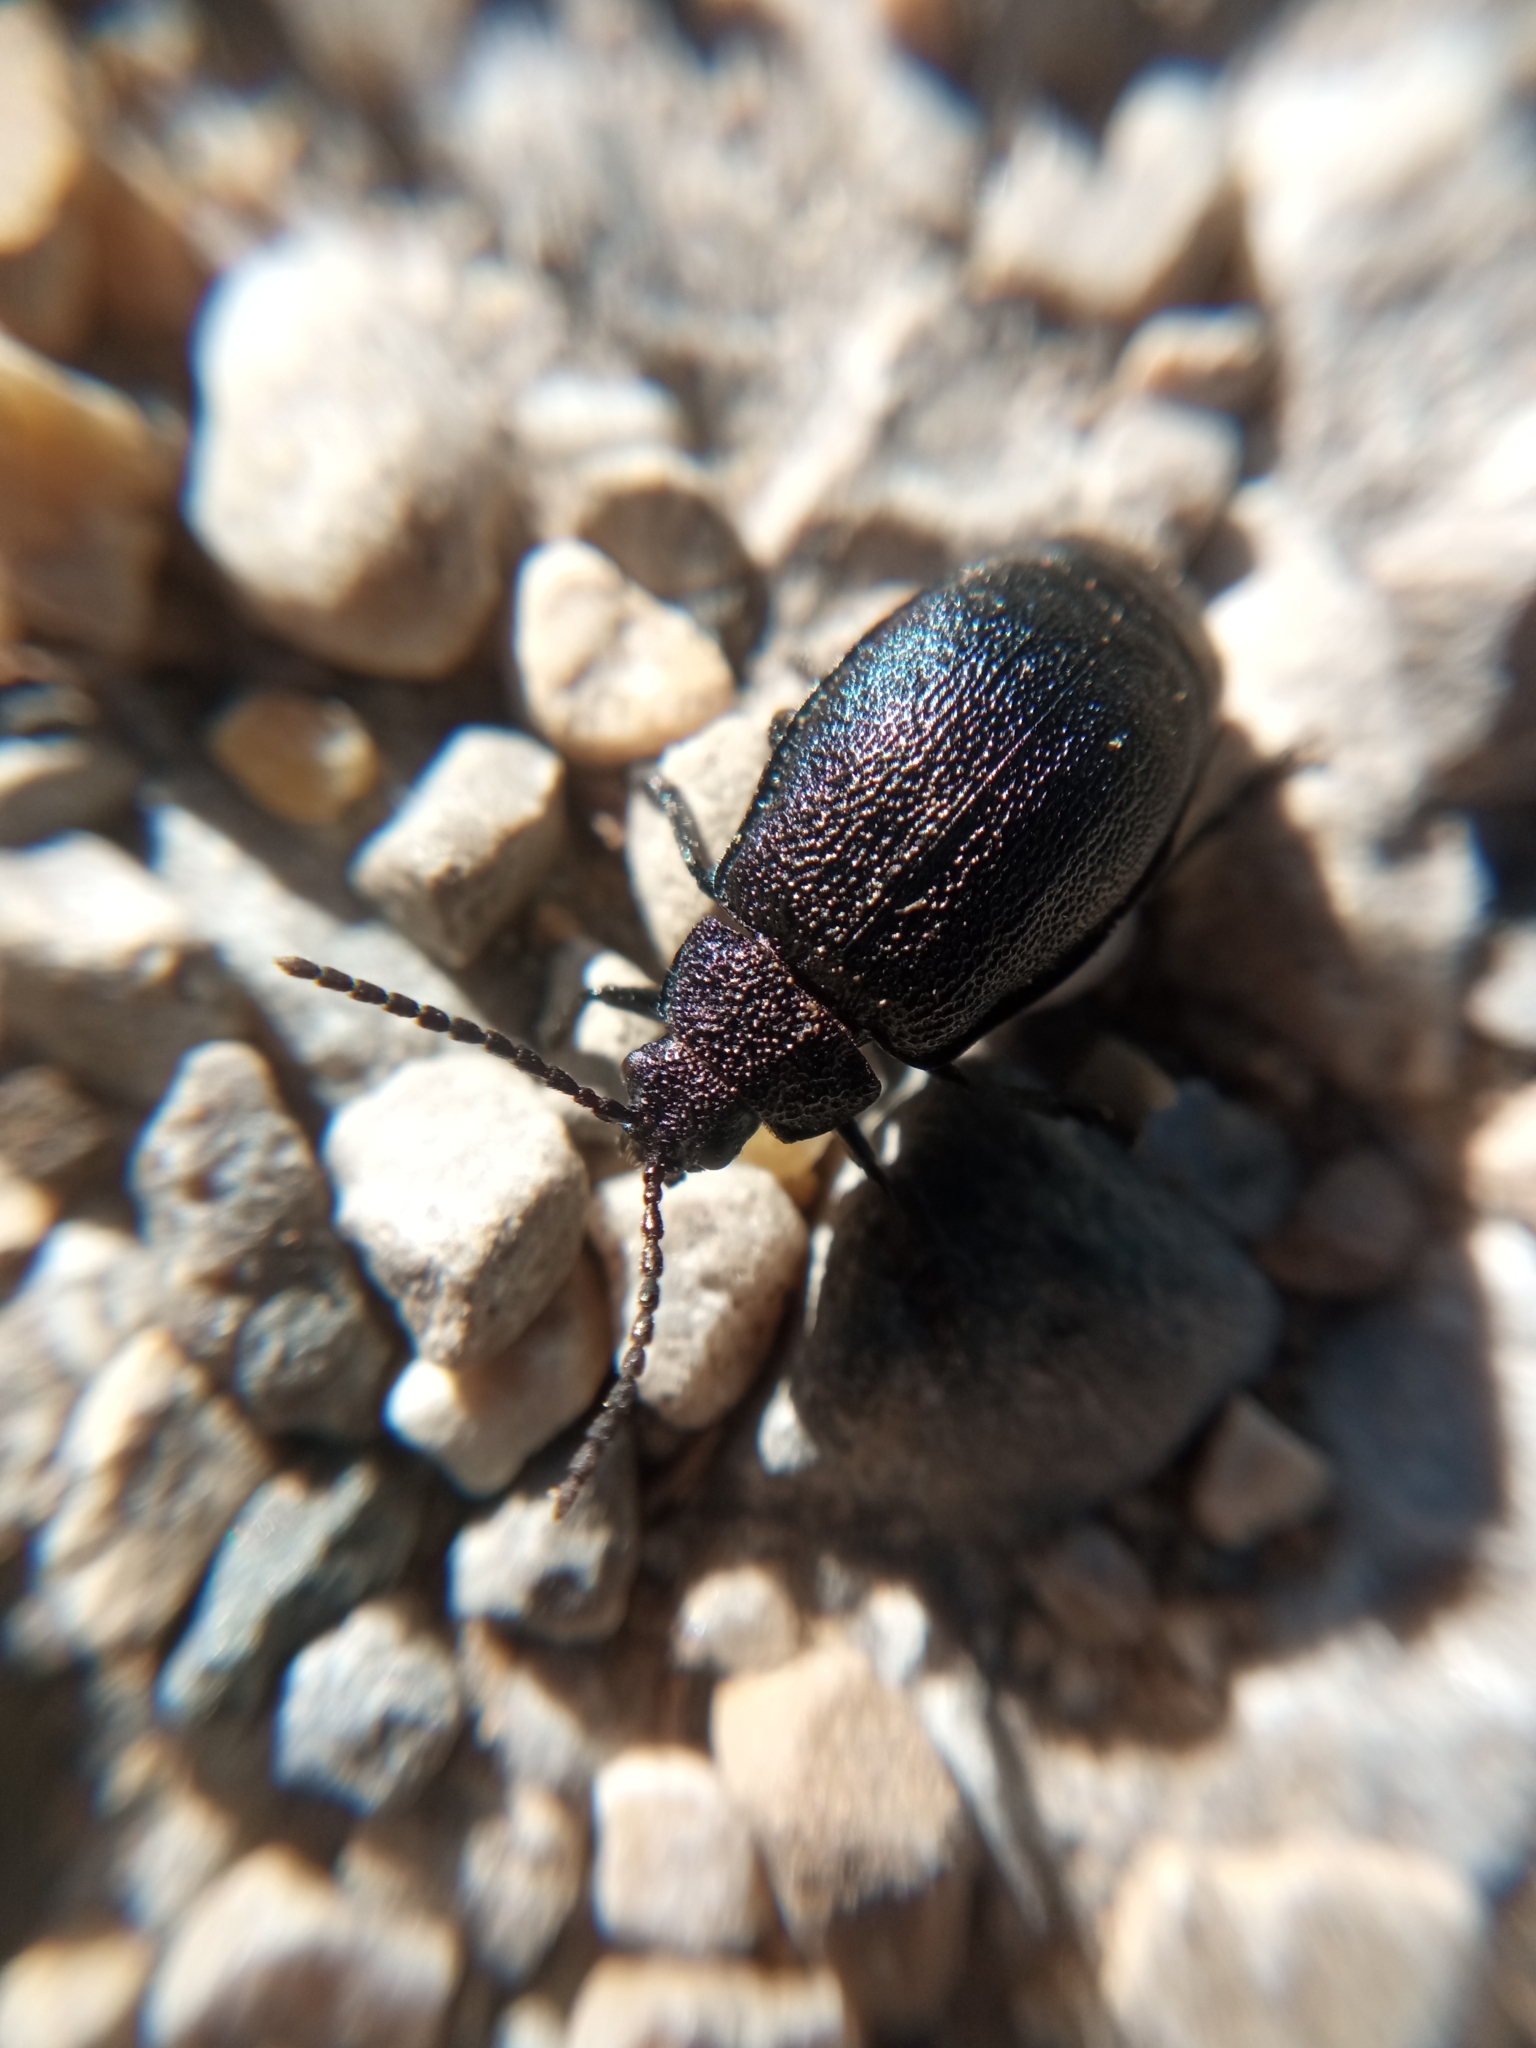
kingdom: Animalia
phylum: Arthropoda
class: Insecta
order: Coleoptera
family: Chrysomelidae
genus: Galeruca
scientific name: Galeruca tanaceti
